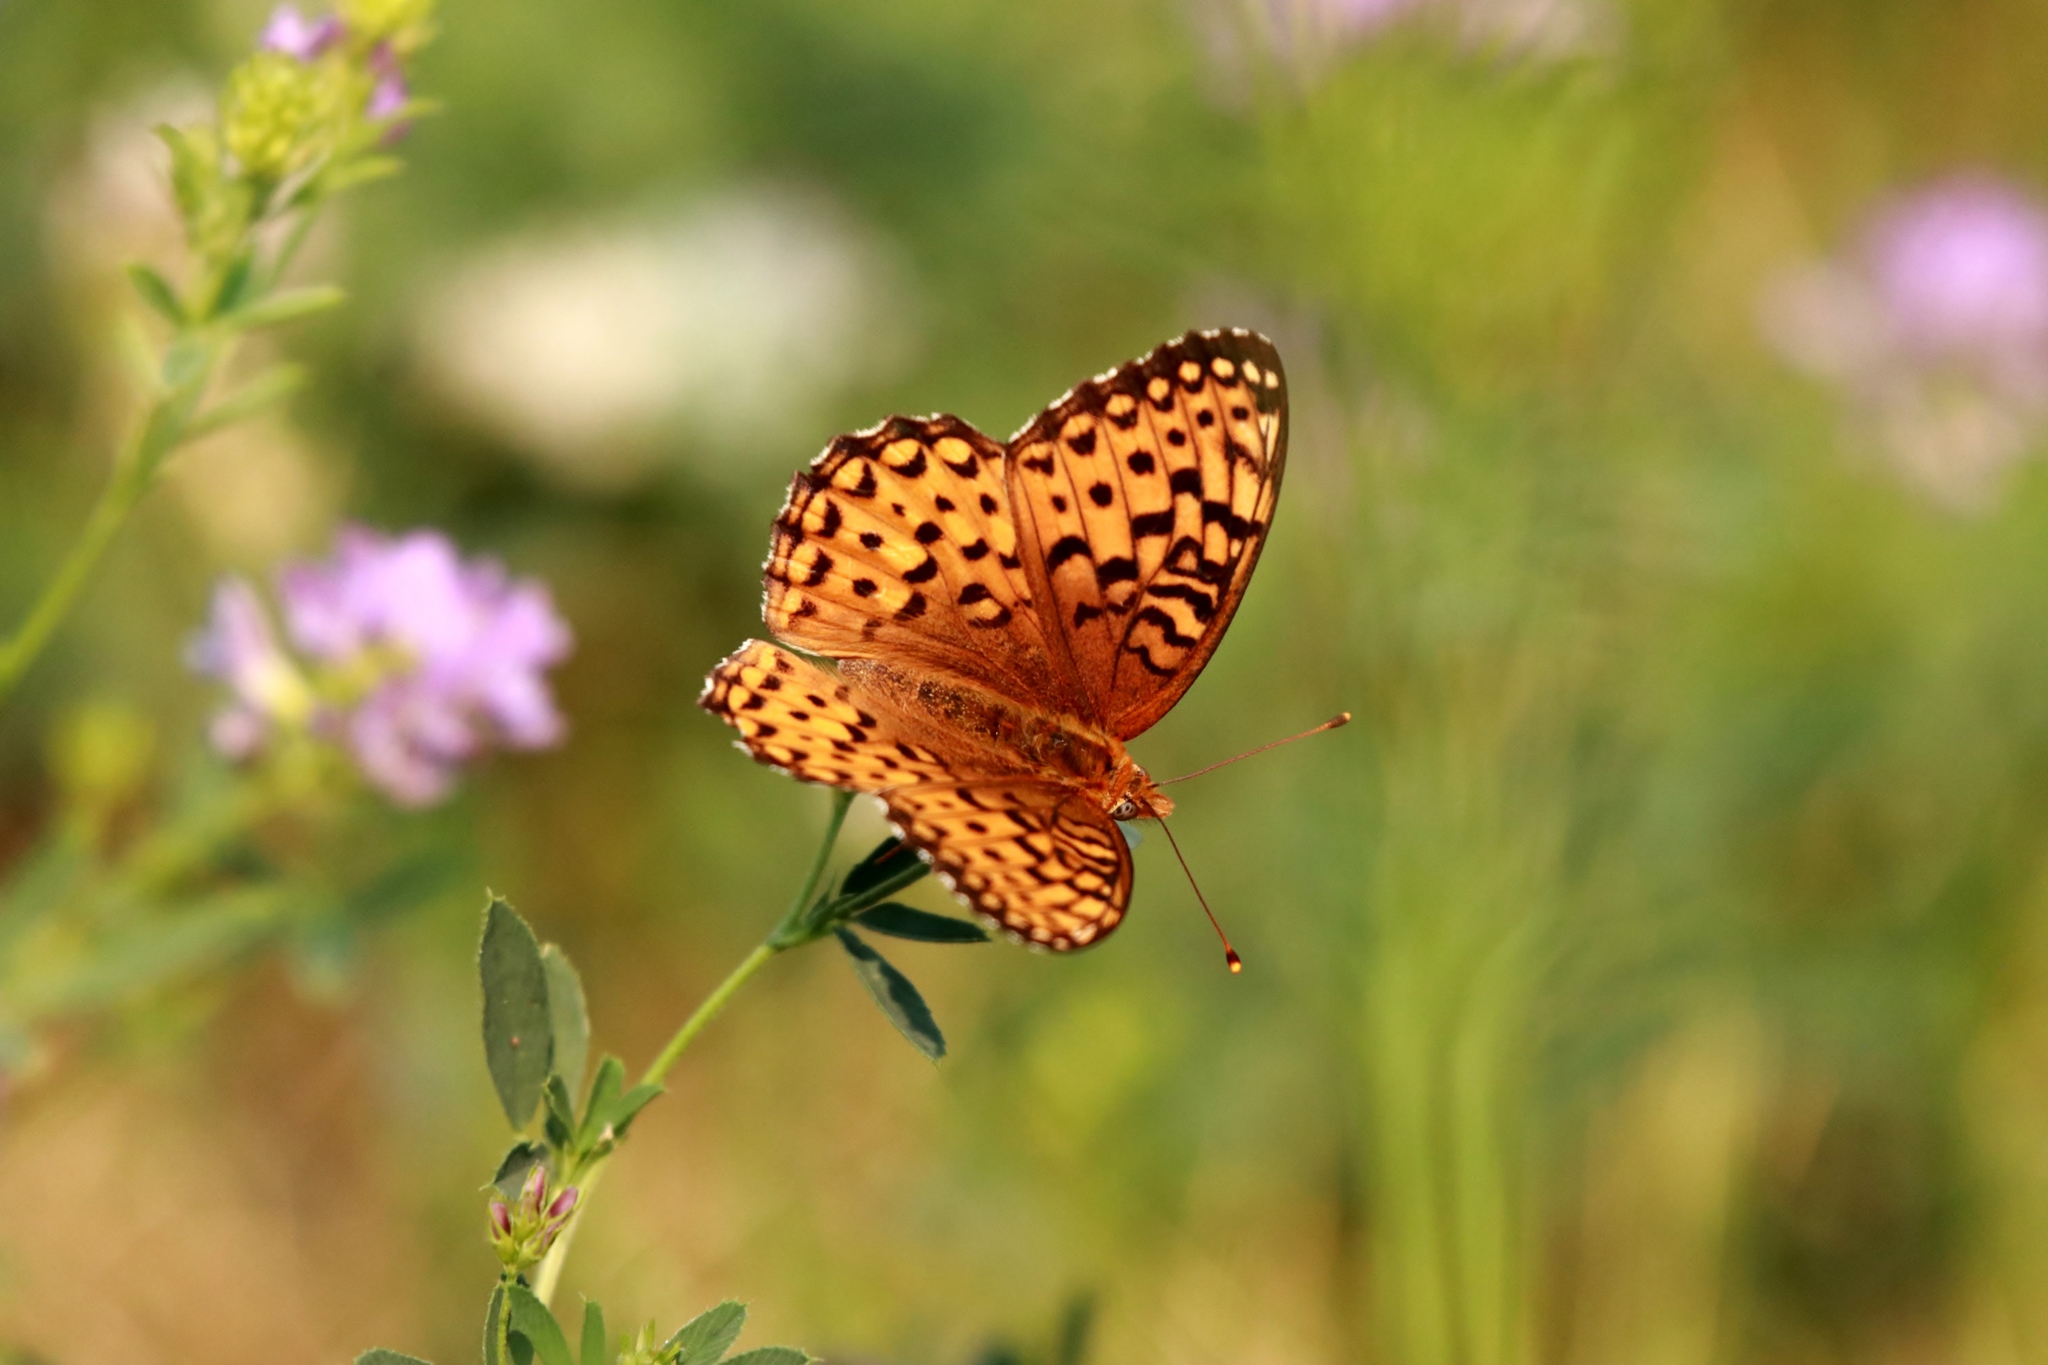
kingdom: Animalia
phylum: Arthropoda
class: Insecta
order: Lepidoptera
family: Nymphalidae
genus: Speyeria
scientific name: Speyeria aphrodite
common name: Aphrodite friitllary
